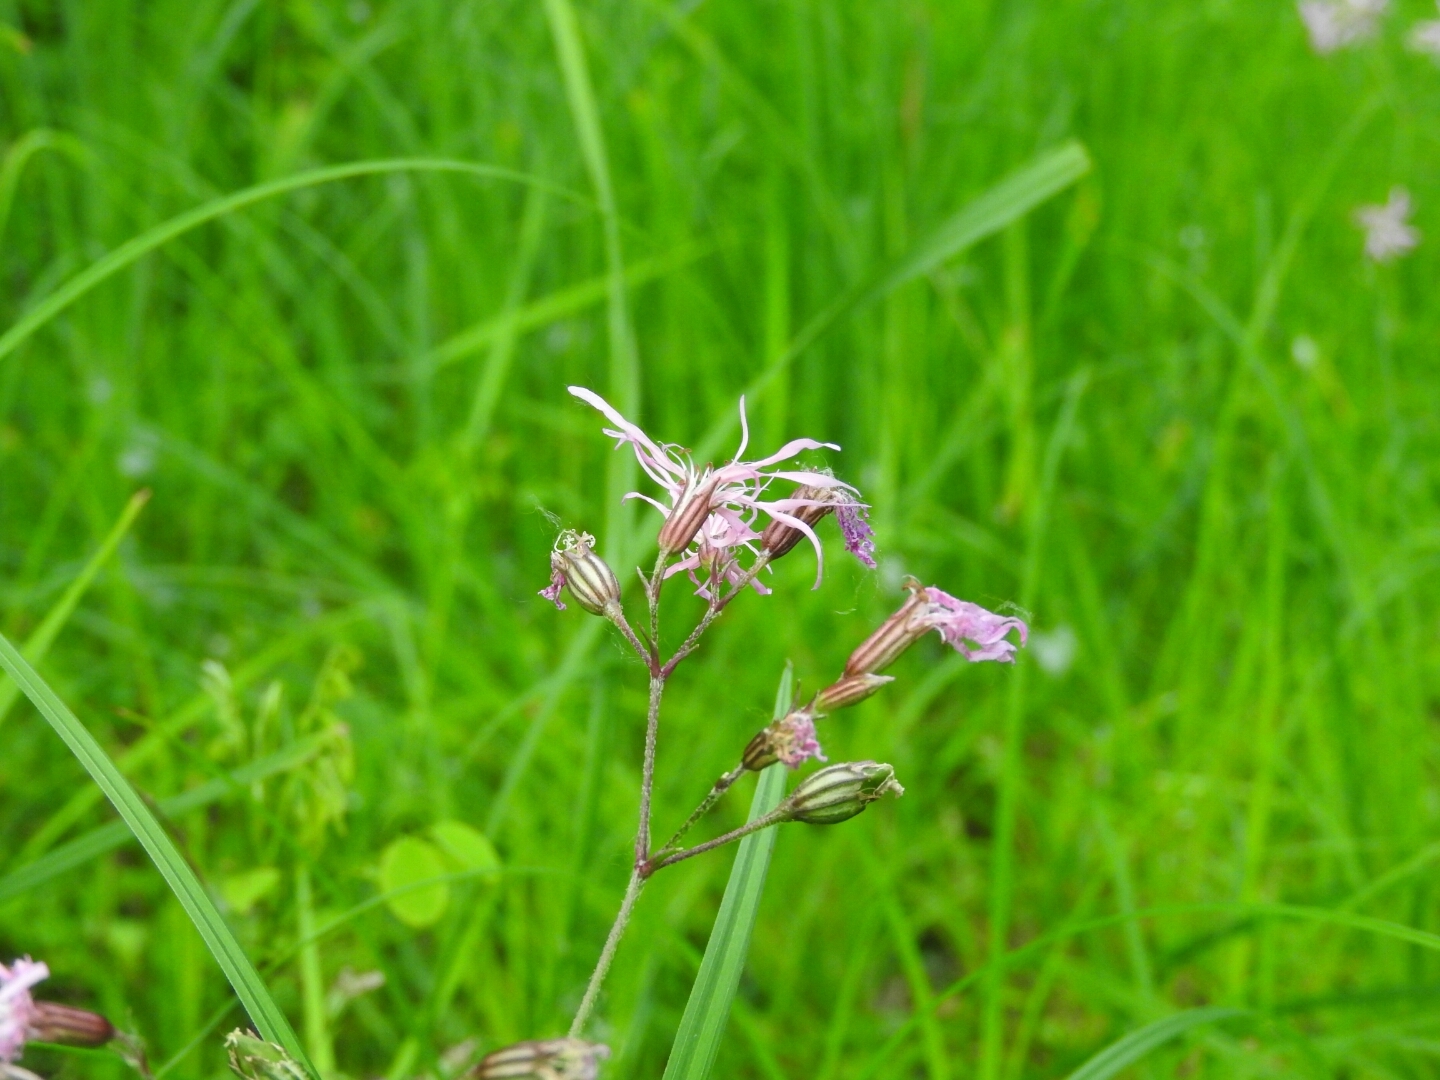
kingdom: Plantae
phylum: Tracheophyta
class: Magnoliopsida
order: Caryophyllales
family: Caryophyllaceae
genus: Silene
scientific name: Silene flos-cuculi
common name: Ragged-robin
